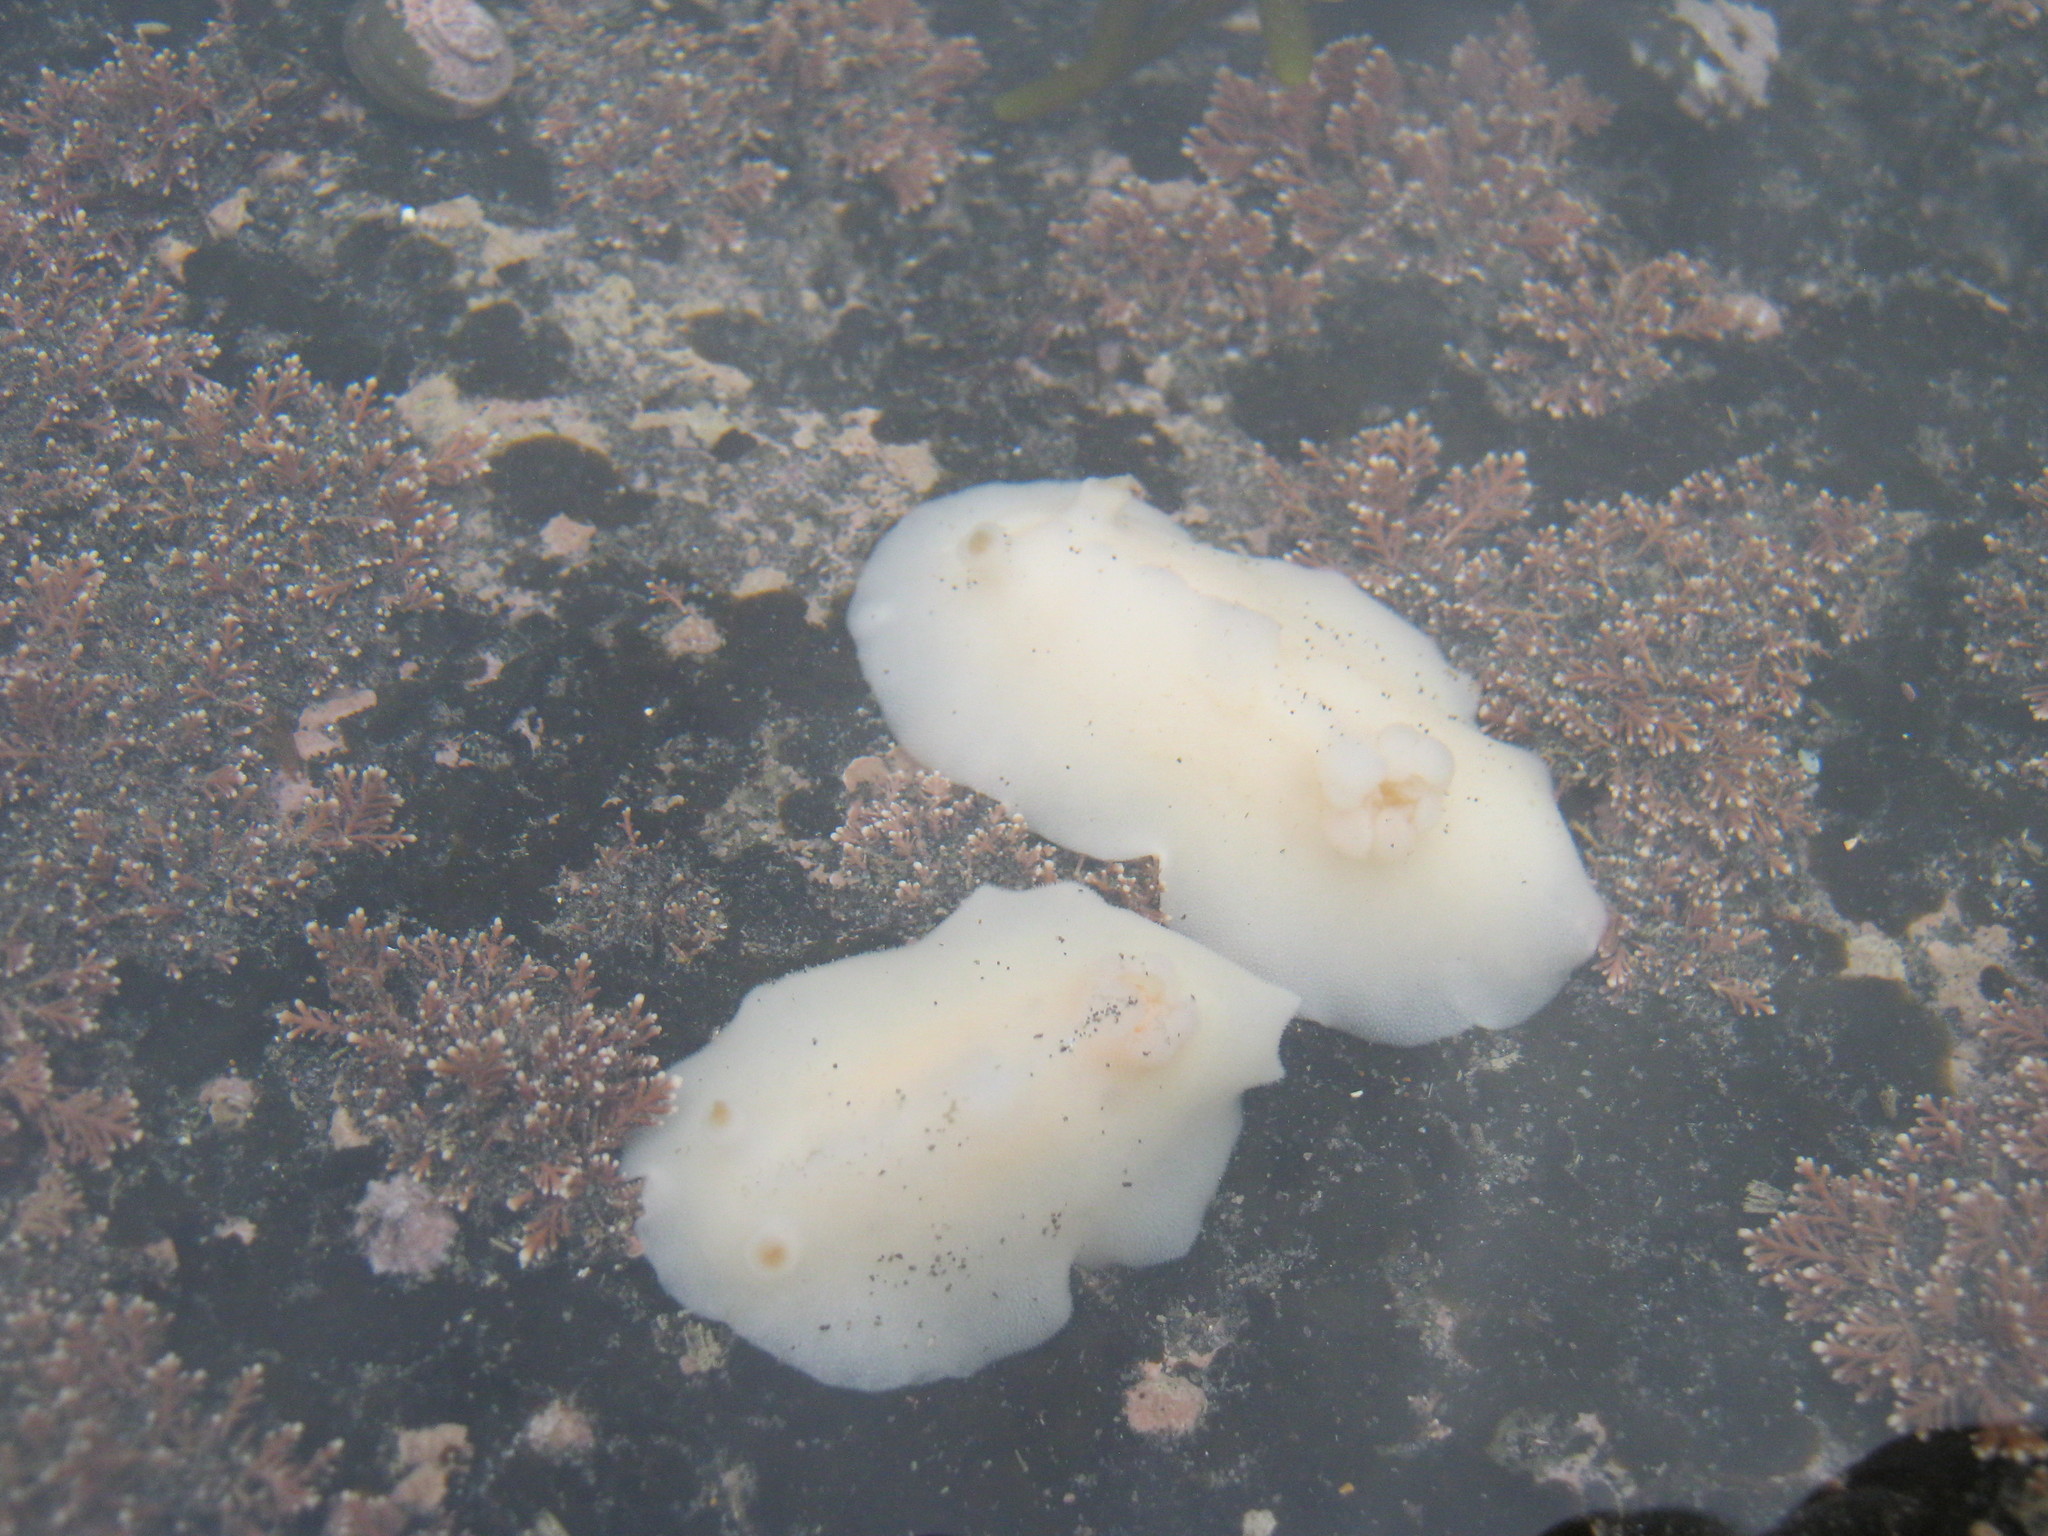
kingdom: Animalia
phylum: Mollusca
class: Gastropoda
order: Nudibranchia
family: Discodorididae
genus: Atagema
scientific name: Atagema carinata
